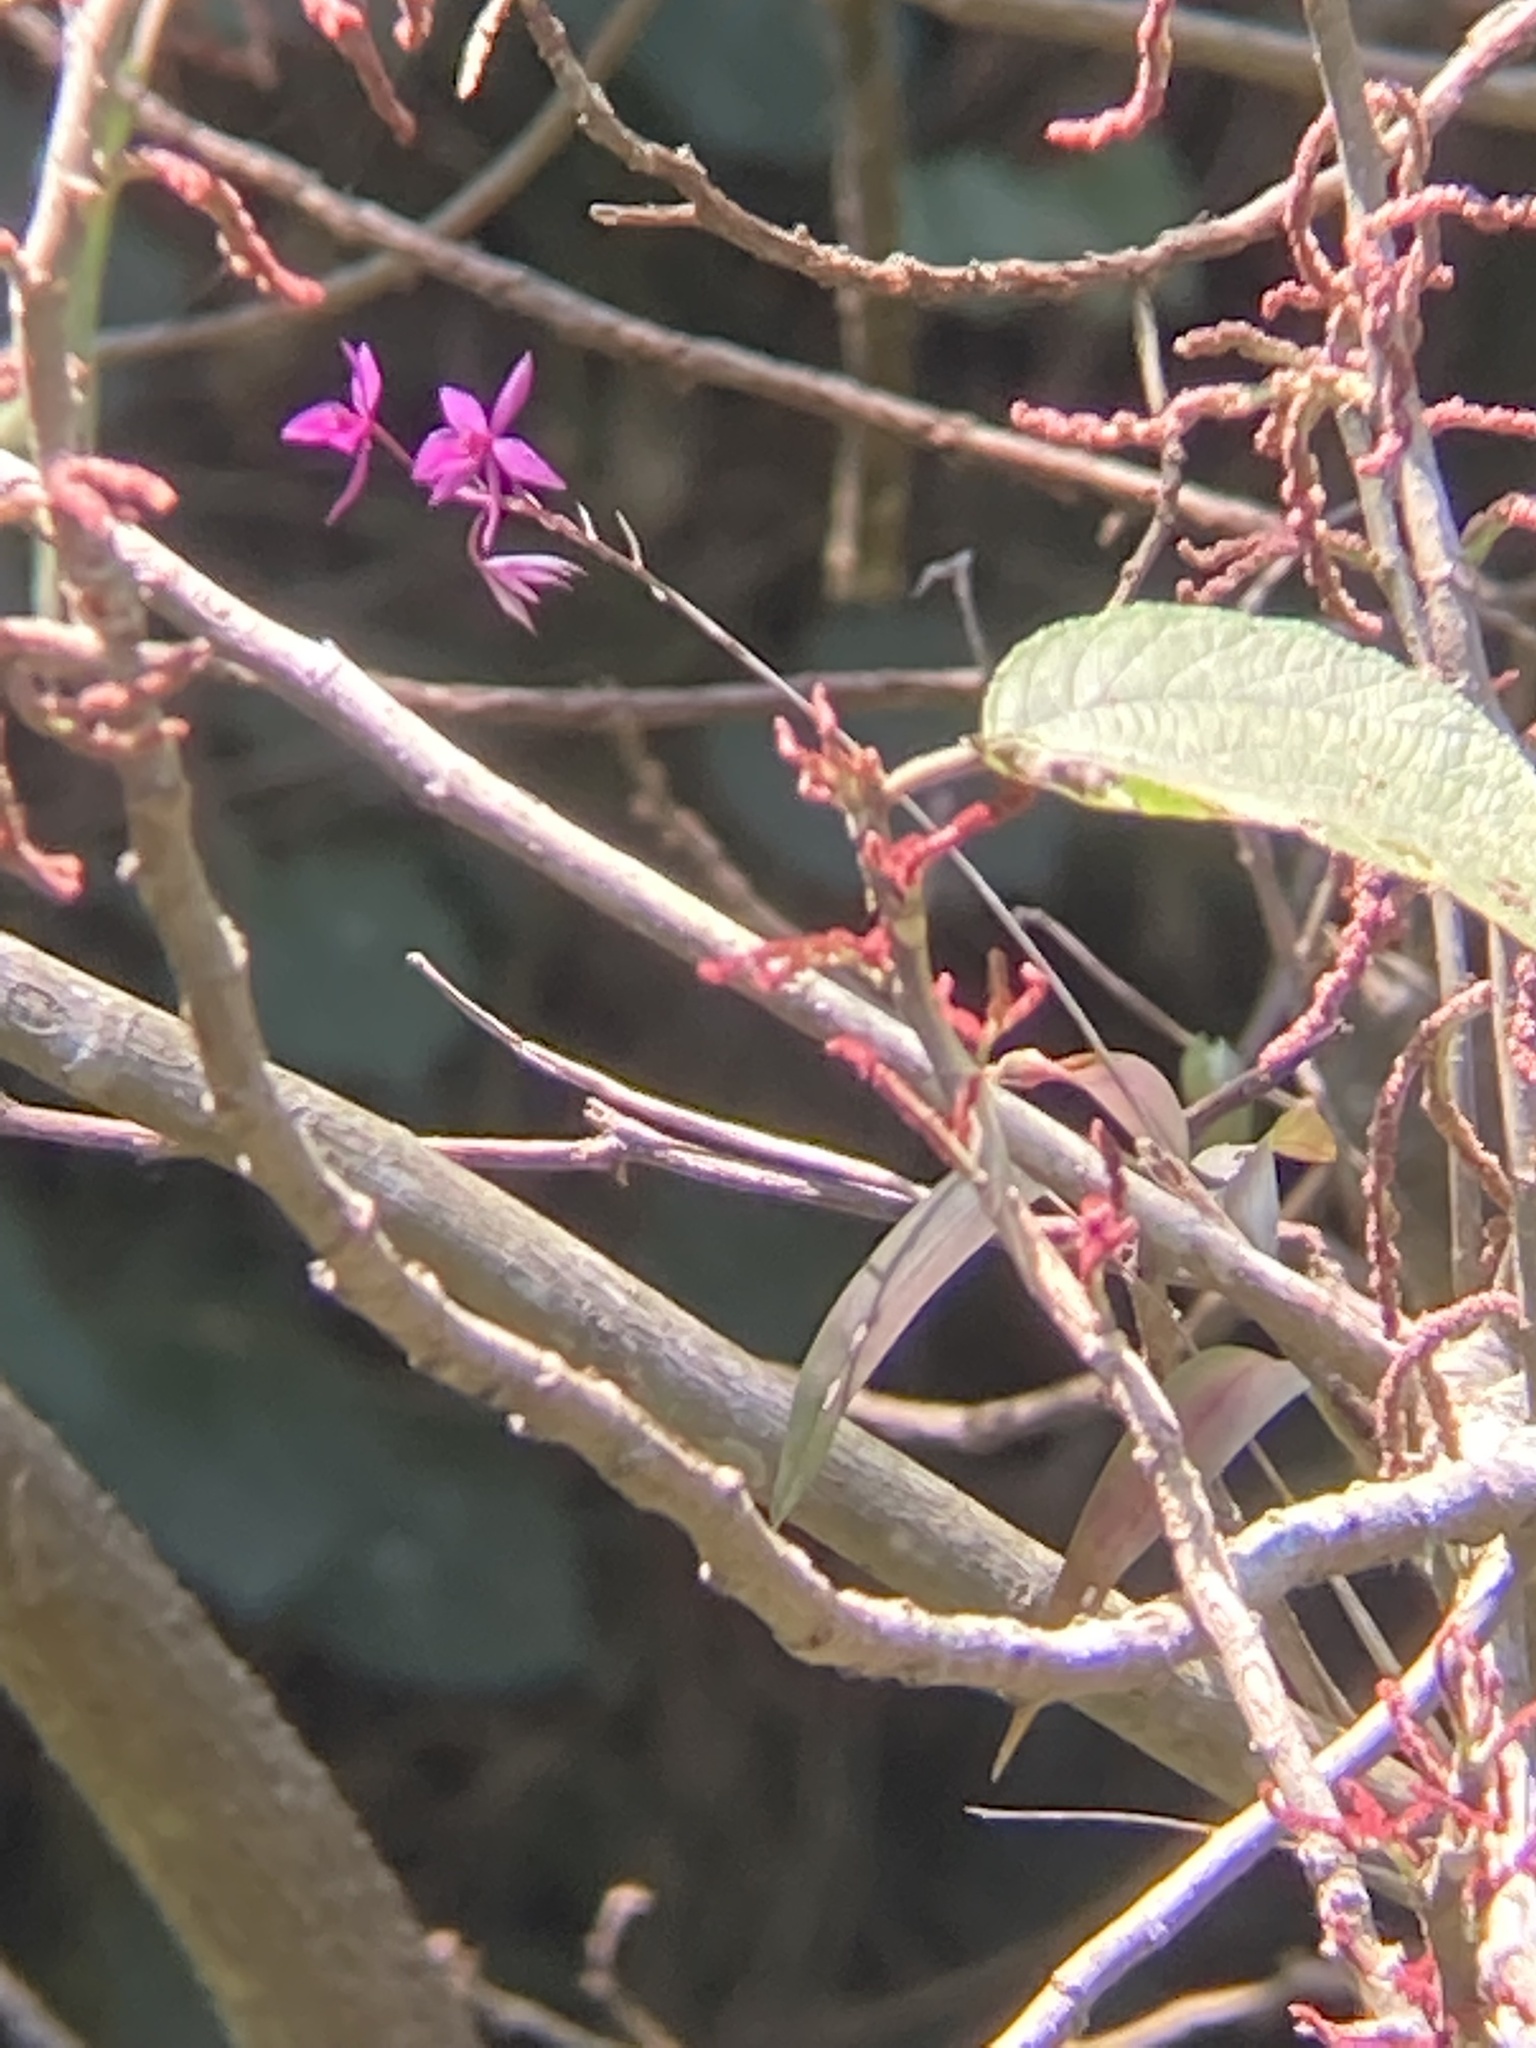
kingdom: Plantae
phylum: Tracheophyta
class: Liliopsida
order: Asparagales
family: Orchidaceae
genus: Barkeria
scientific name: Barkeria skinneri
